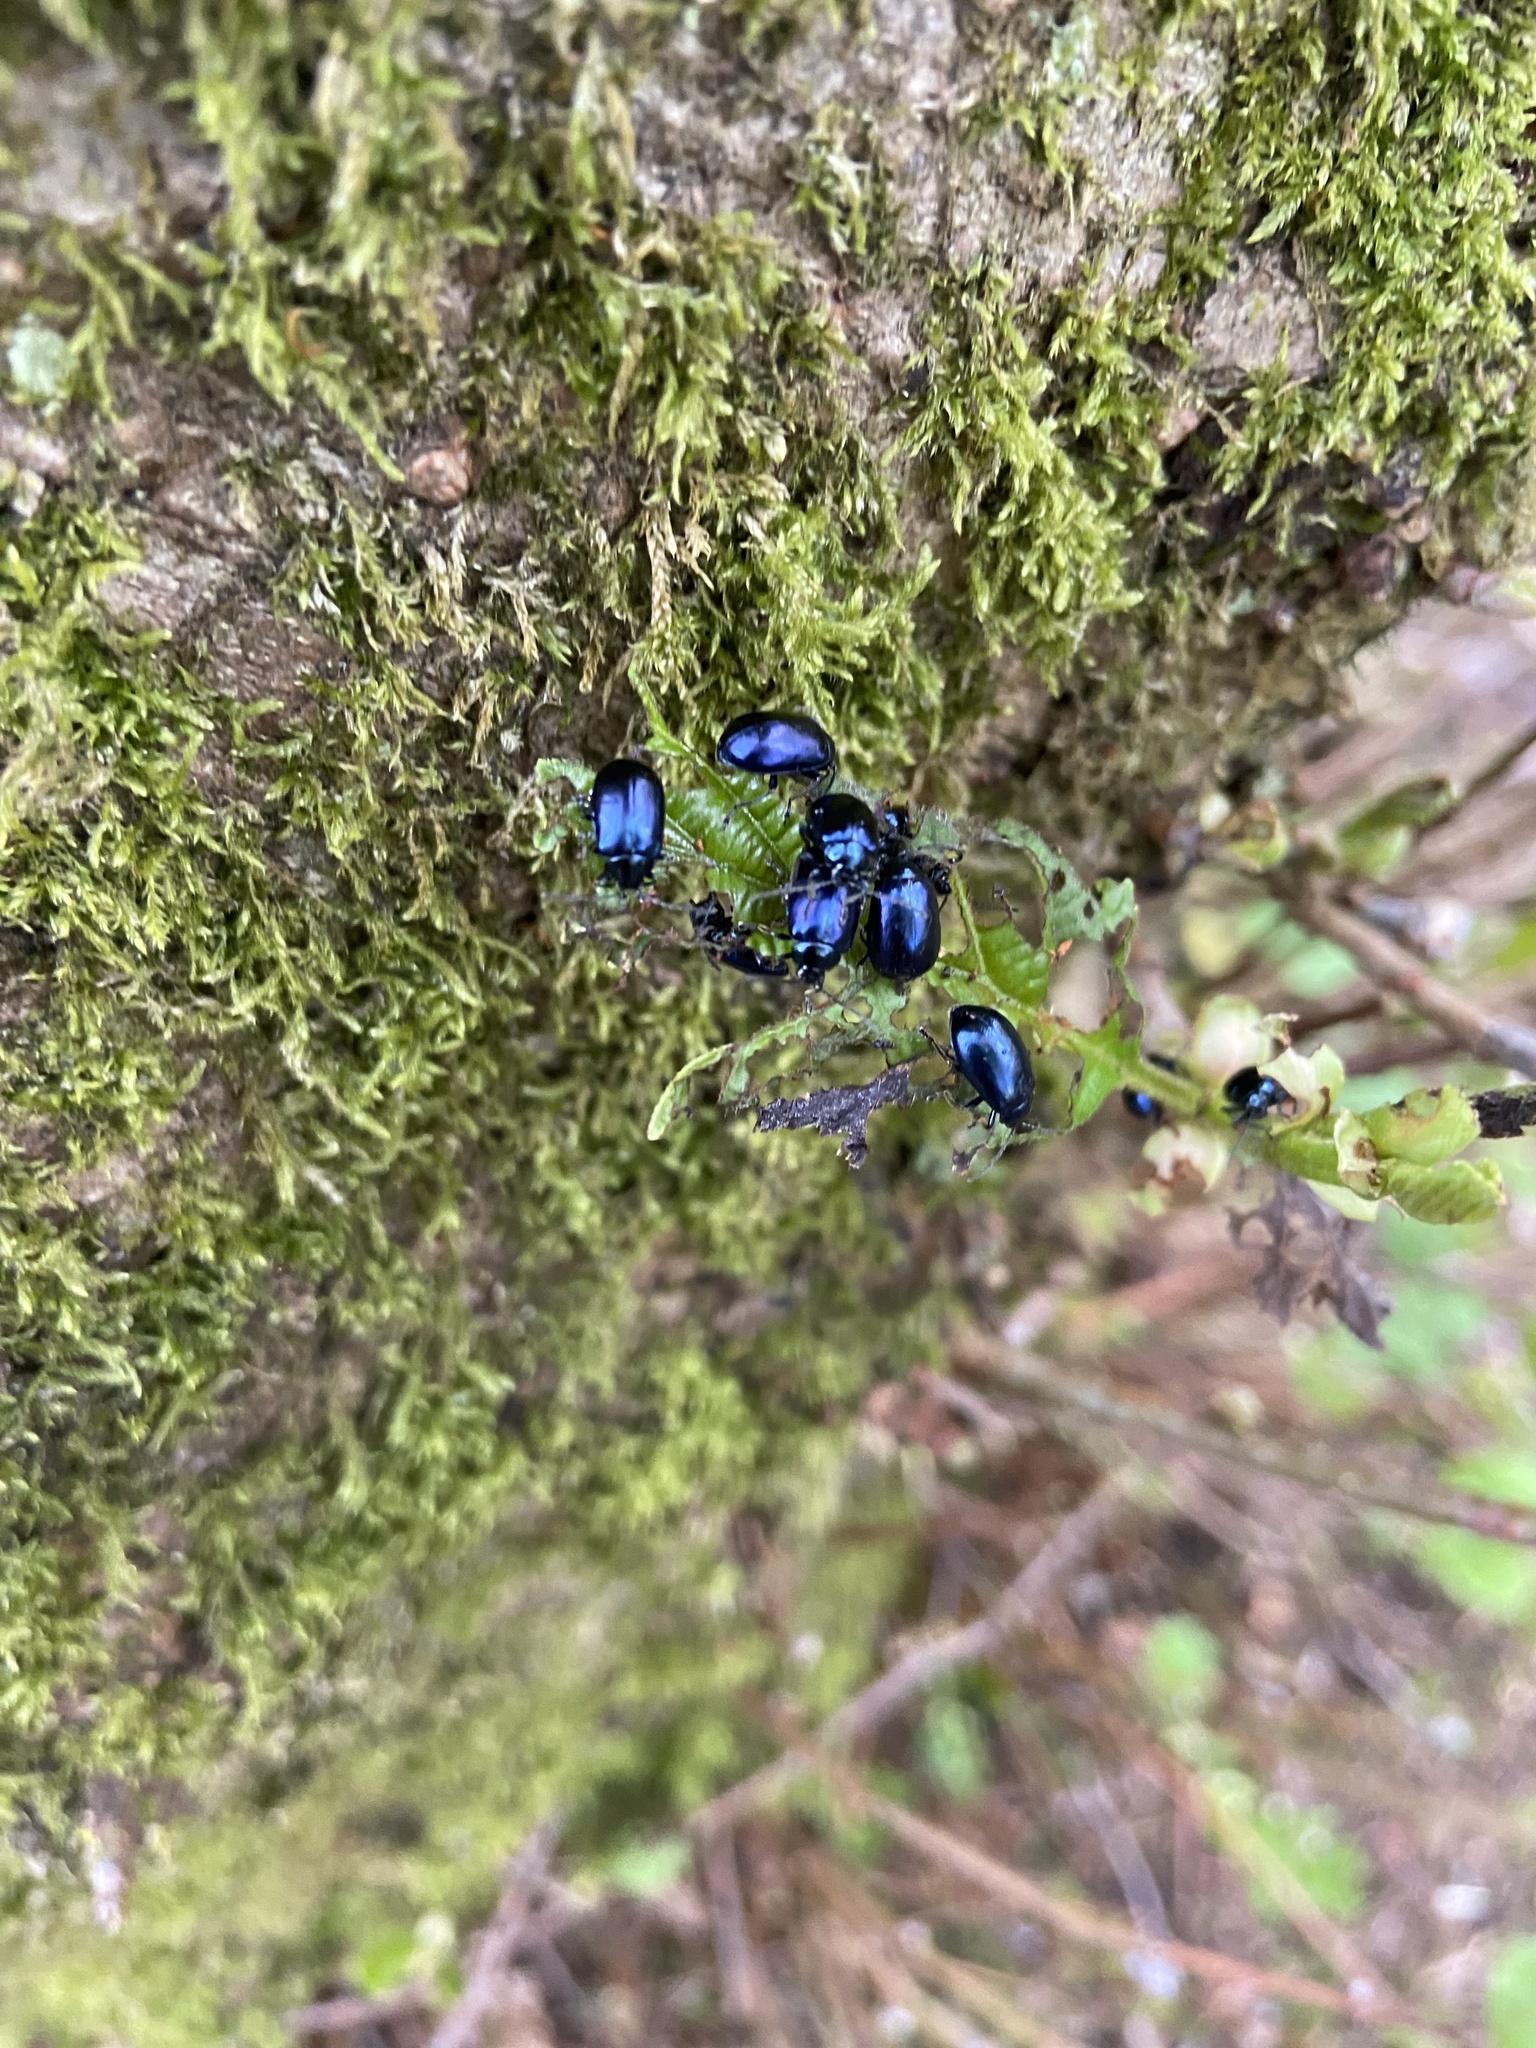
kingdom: Animalia
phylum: Arthropoda
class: Insecta
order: Coleoptera
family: Chrysomelidae
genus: Agelastica
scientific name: Agelastica alni
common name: Alder leaf beetle
